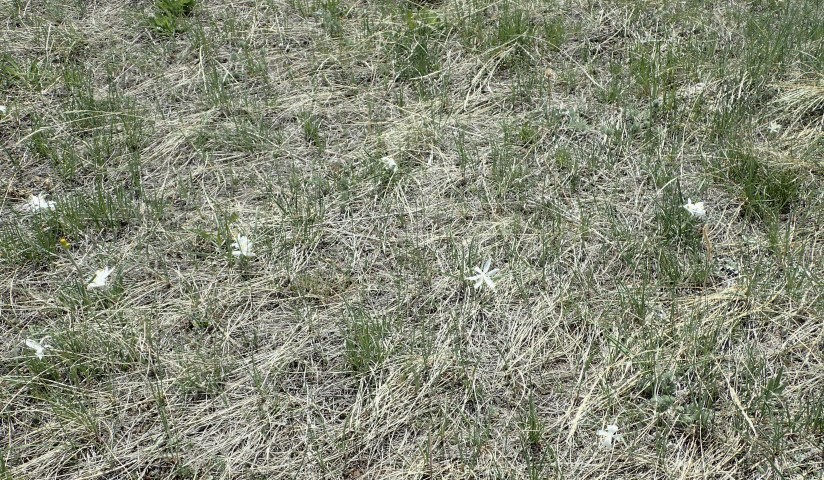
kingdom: Plantae
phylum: Tracheophyta
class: Liliopsida
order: Asparagales
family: Asparagaceae
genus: Leucocrinum
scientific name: Leucocrinum montanum
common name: Mountain-lily
